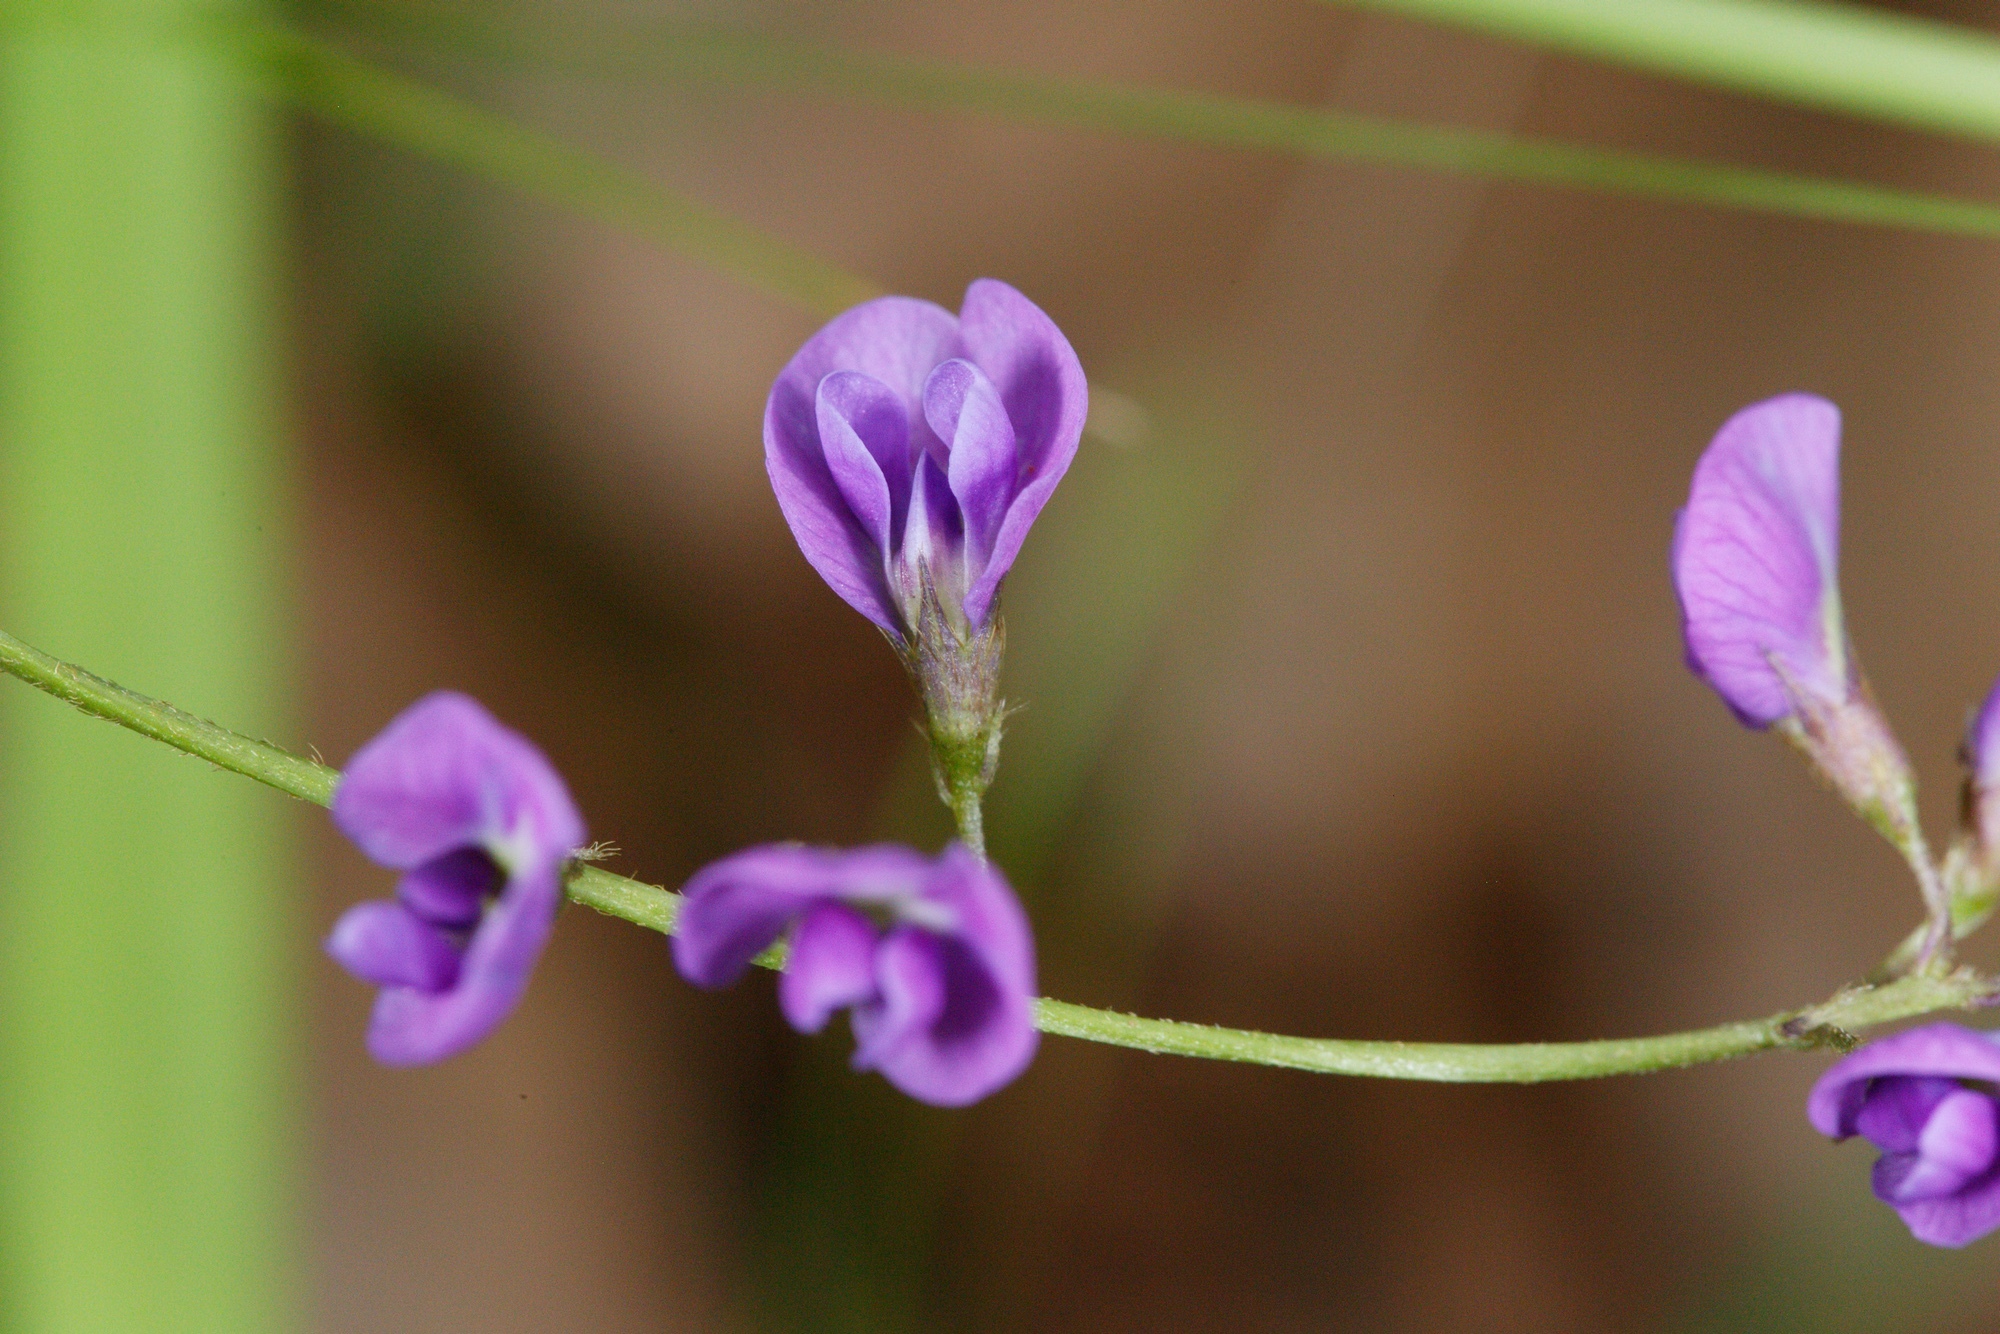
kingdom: Plantae
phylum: Tracheophyta
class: Magnoliopsida
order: Fabales
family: Fabaceae
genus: Glycine
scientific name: Glycine clandestina
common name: Twining glycine
